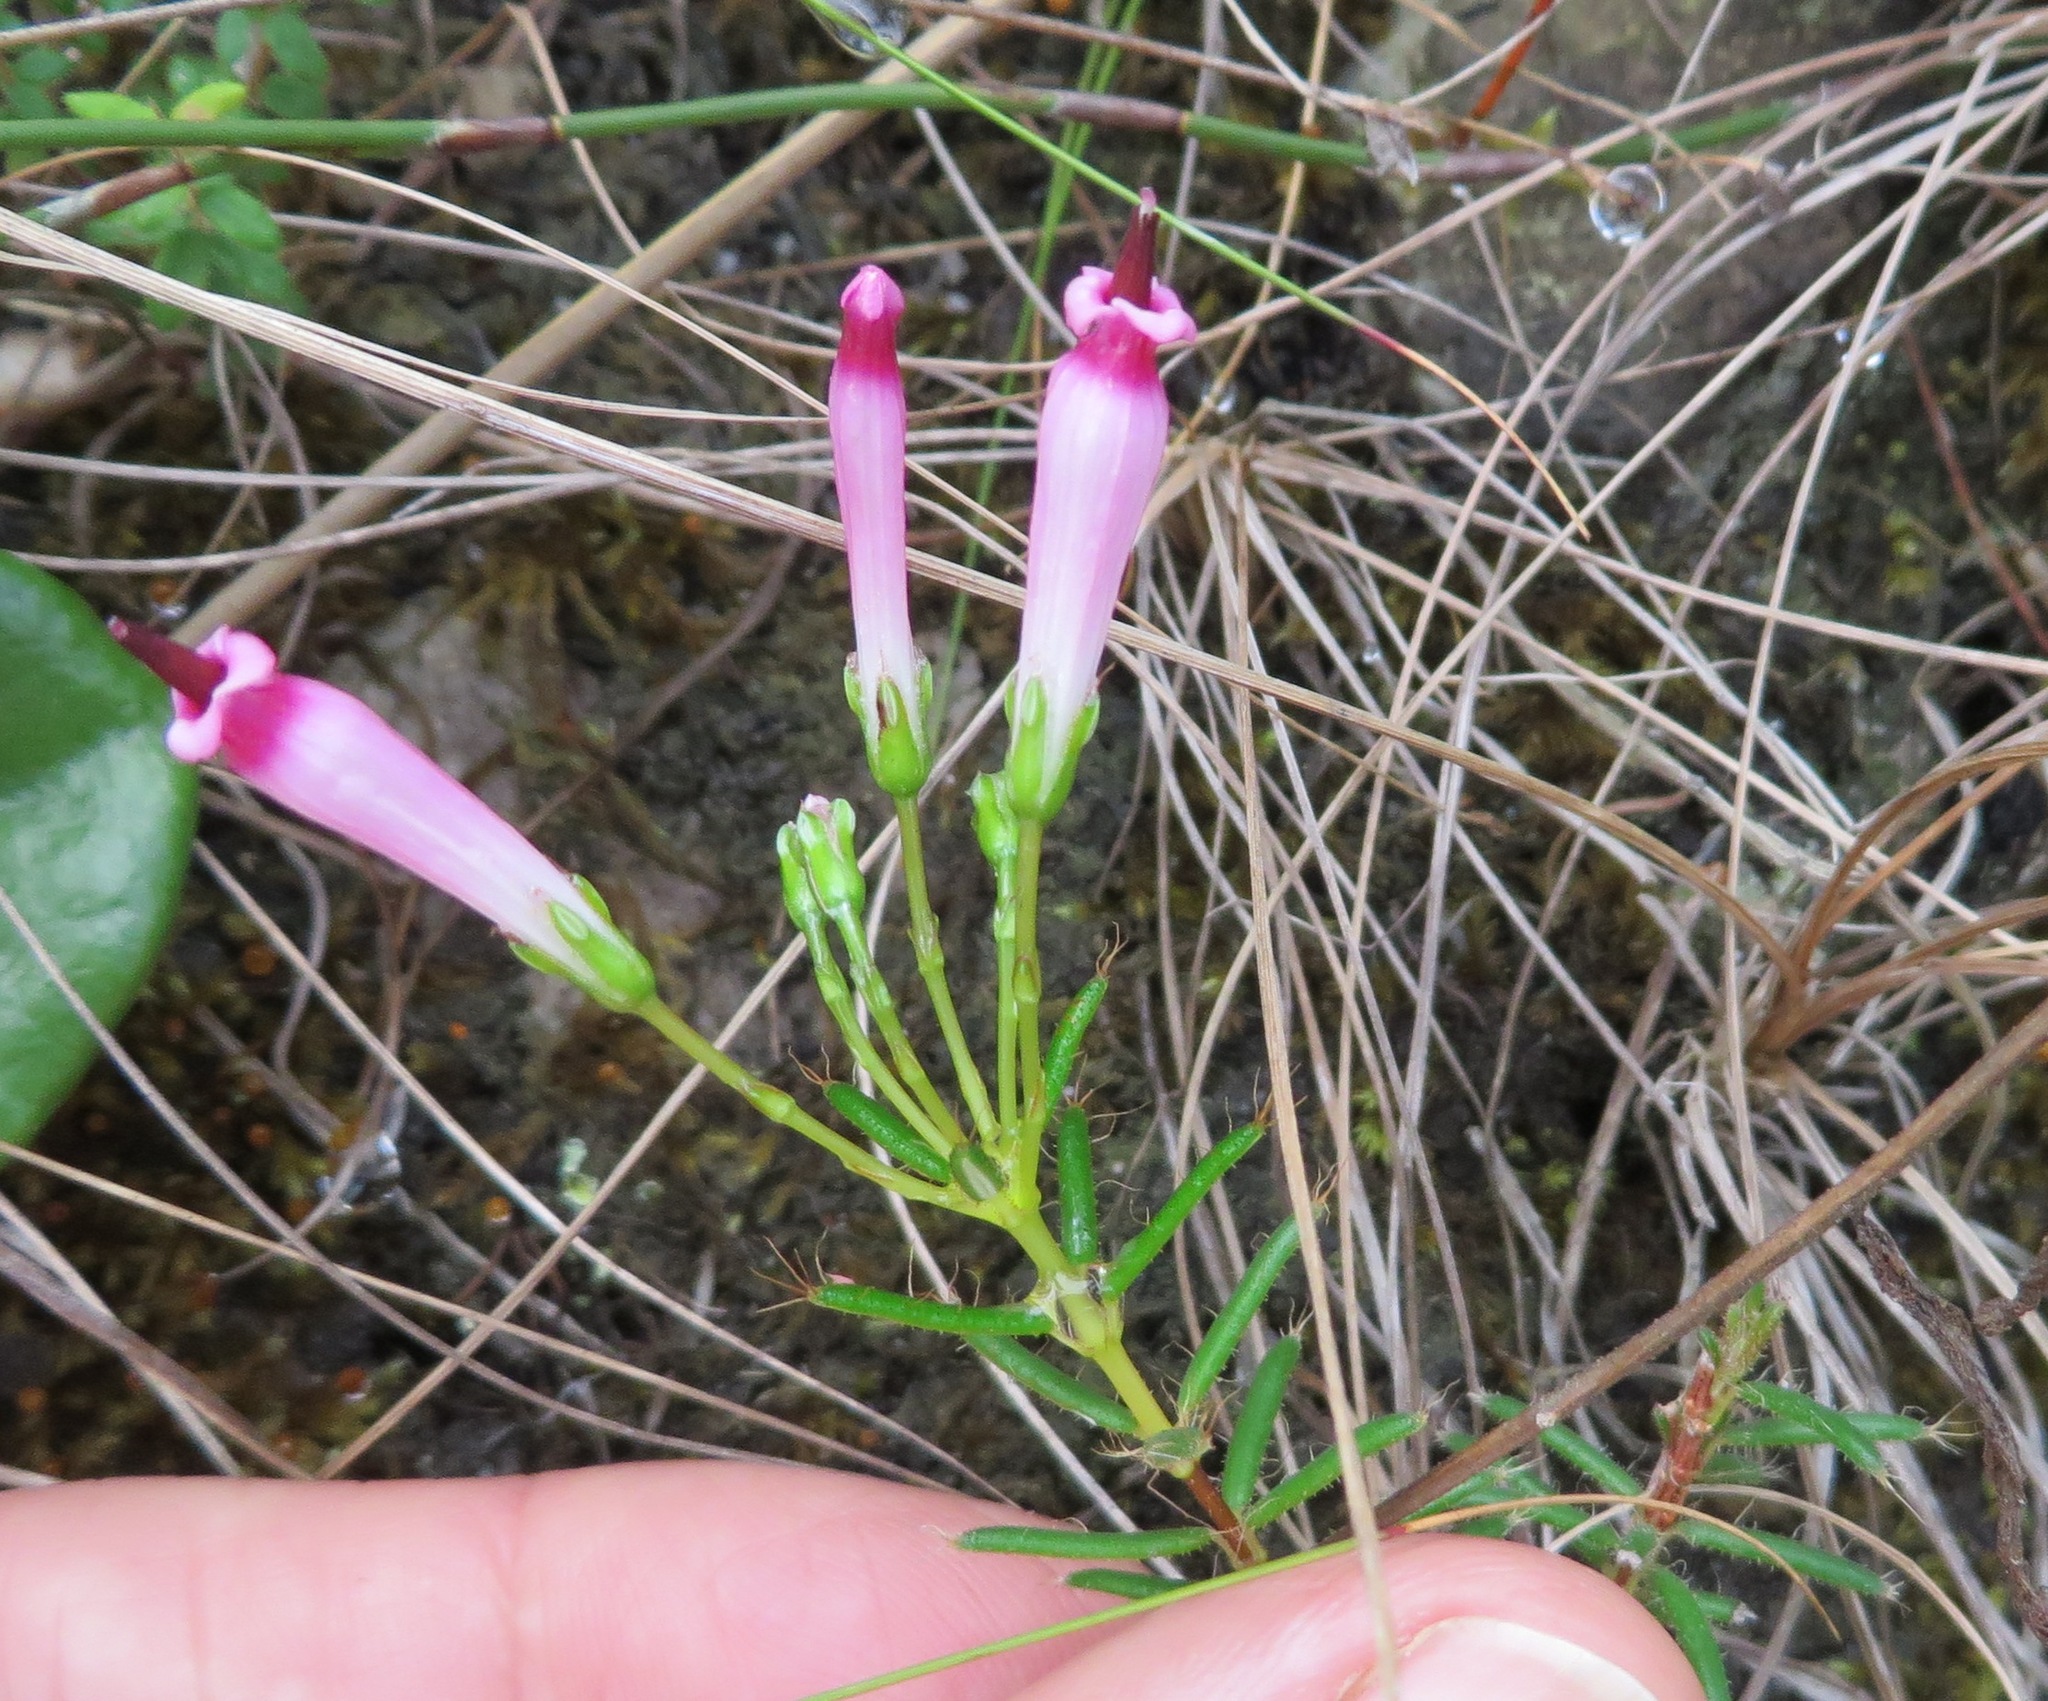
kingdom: Plantae
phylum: Tracheophyta
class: Magnoliopsida
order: Ericales
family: Ericaceae
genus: Erica
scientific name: Erica embothriifolia
